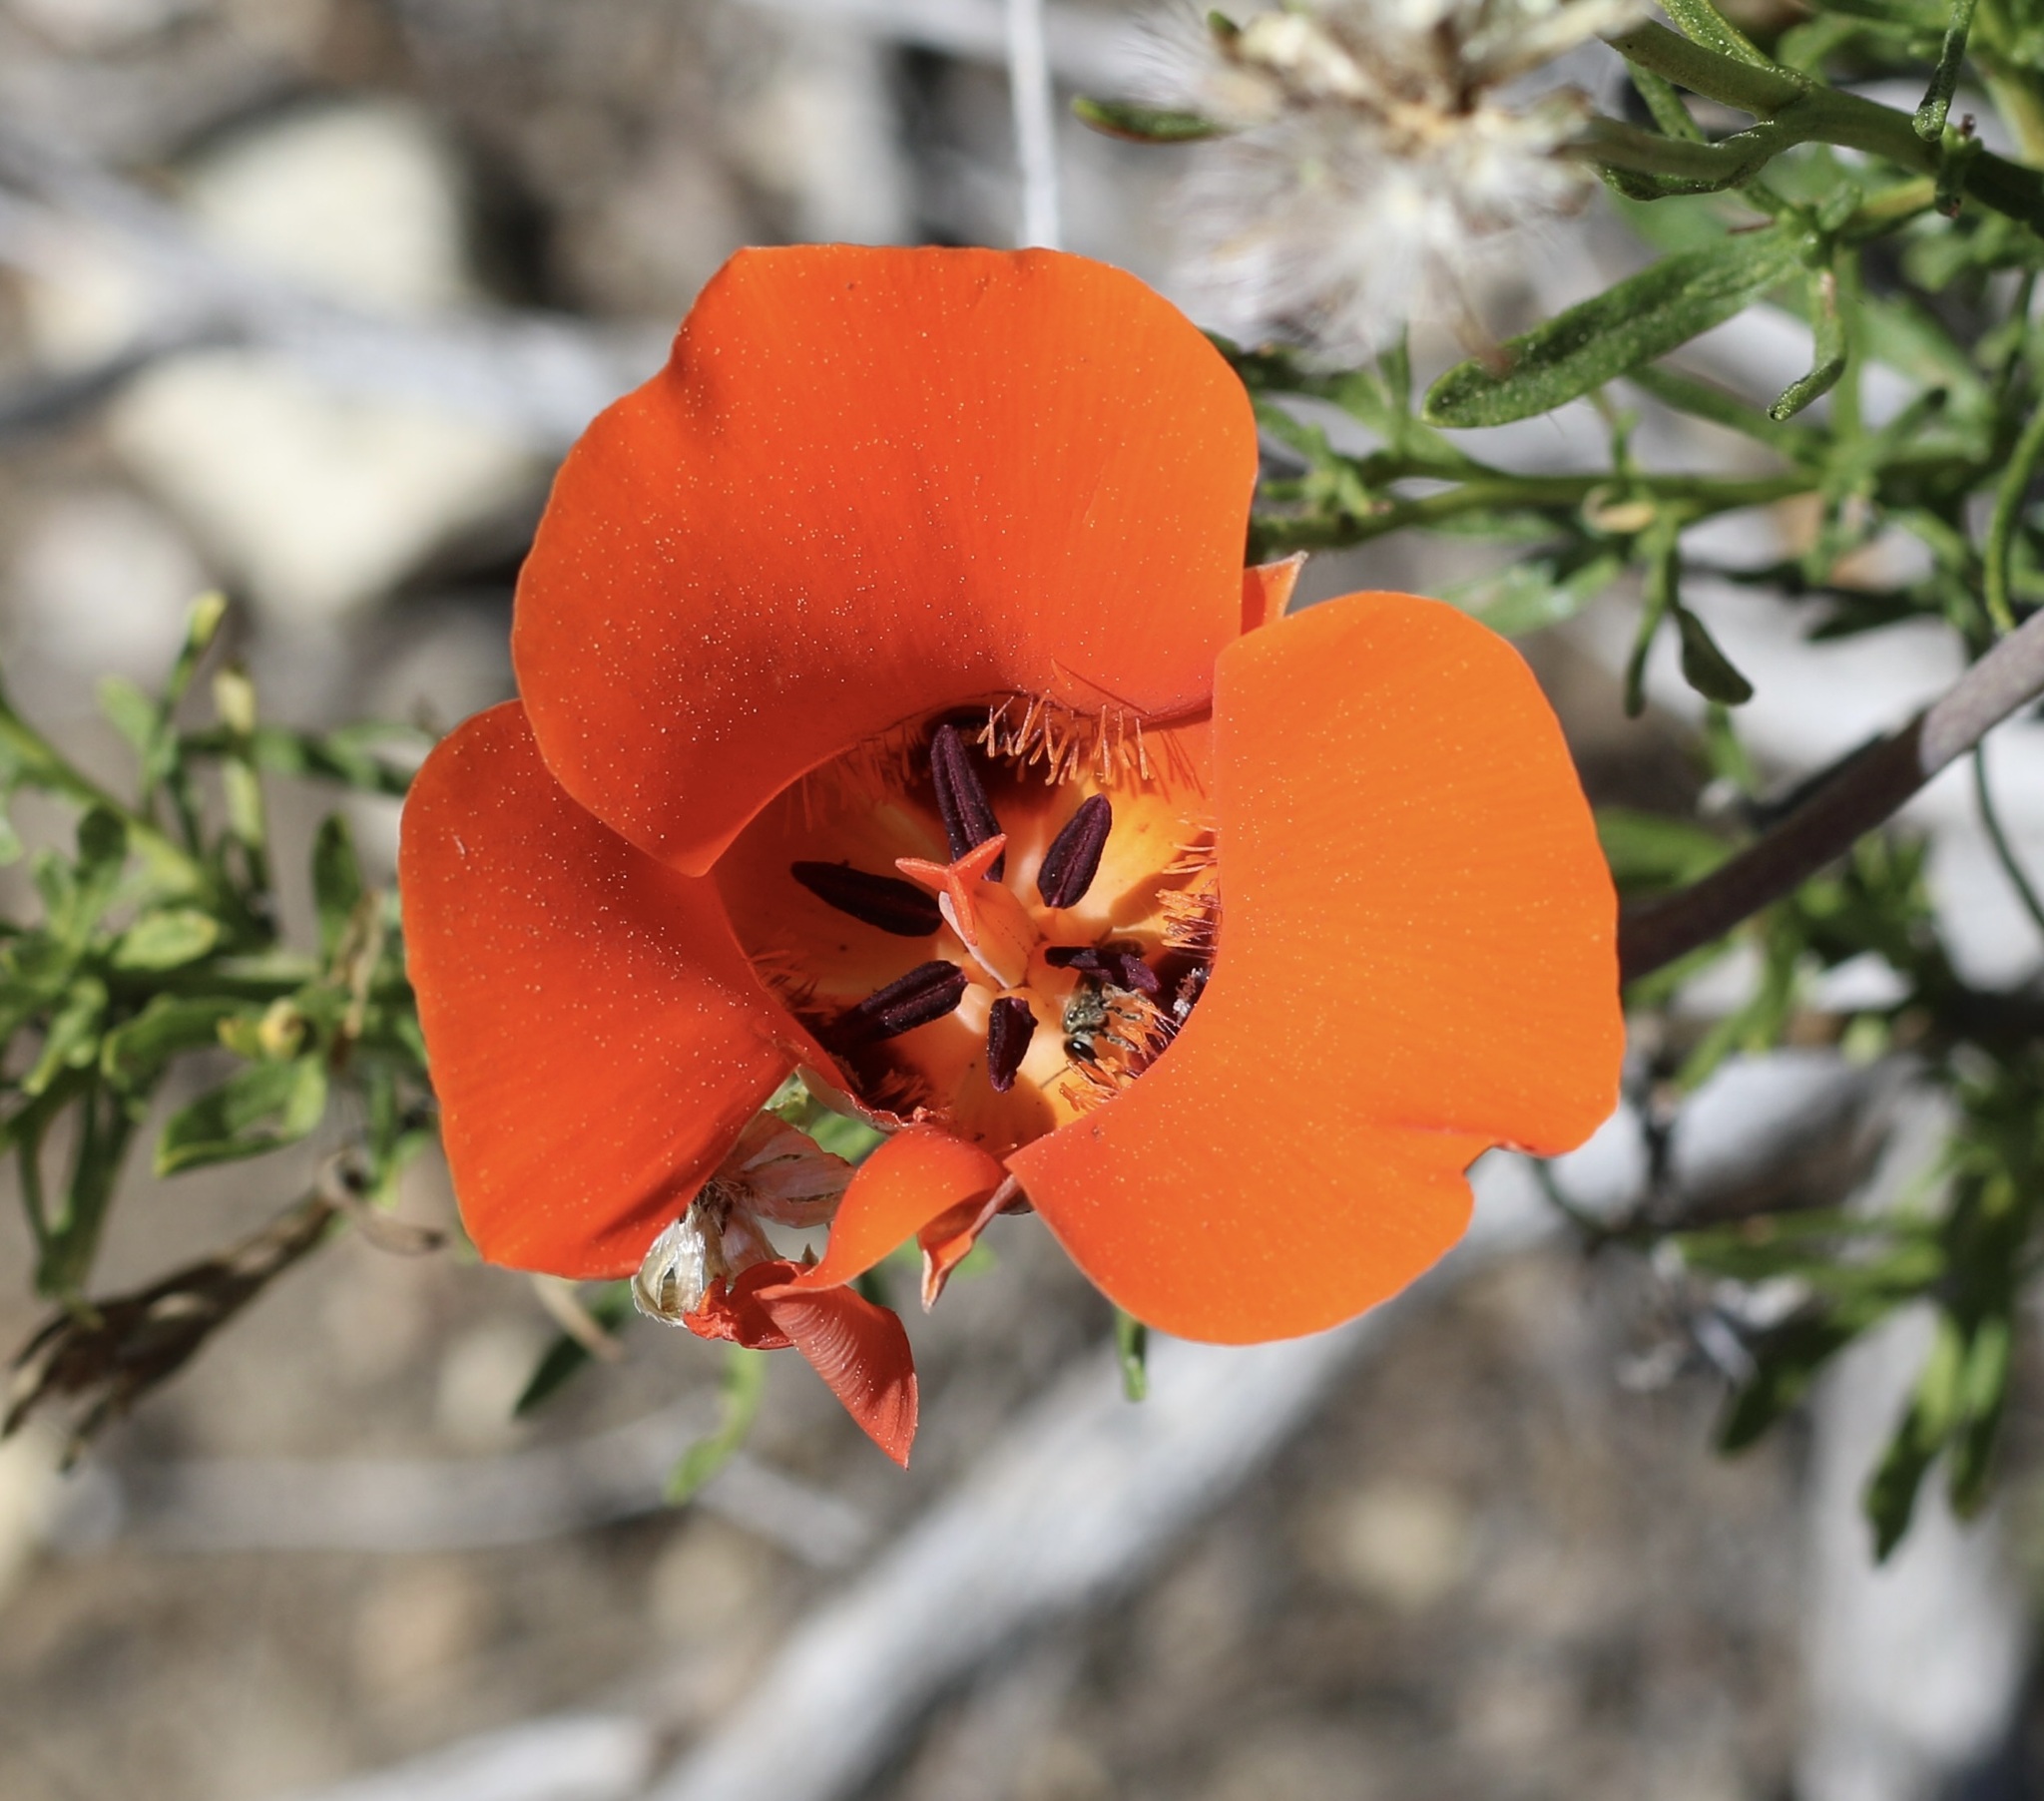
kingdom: Plantae
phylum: Tracheophyta
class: Liliopsida
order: Liliales
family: Liliaceae
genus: Calochortus
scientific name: Calochortus kennedyi
